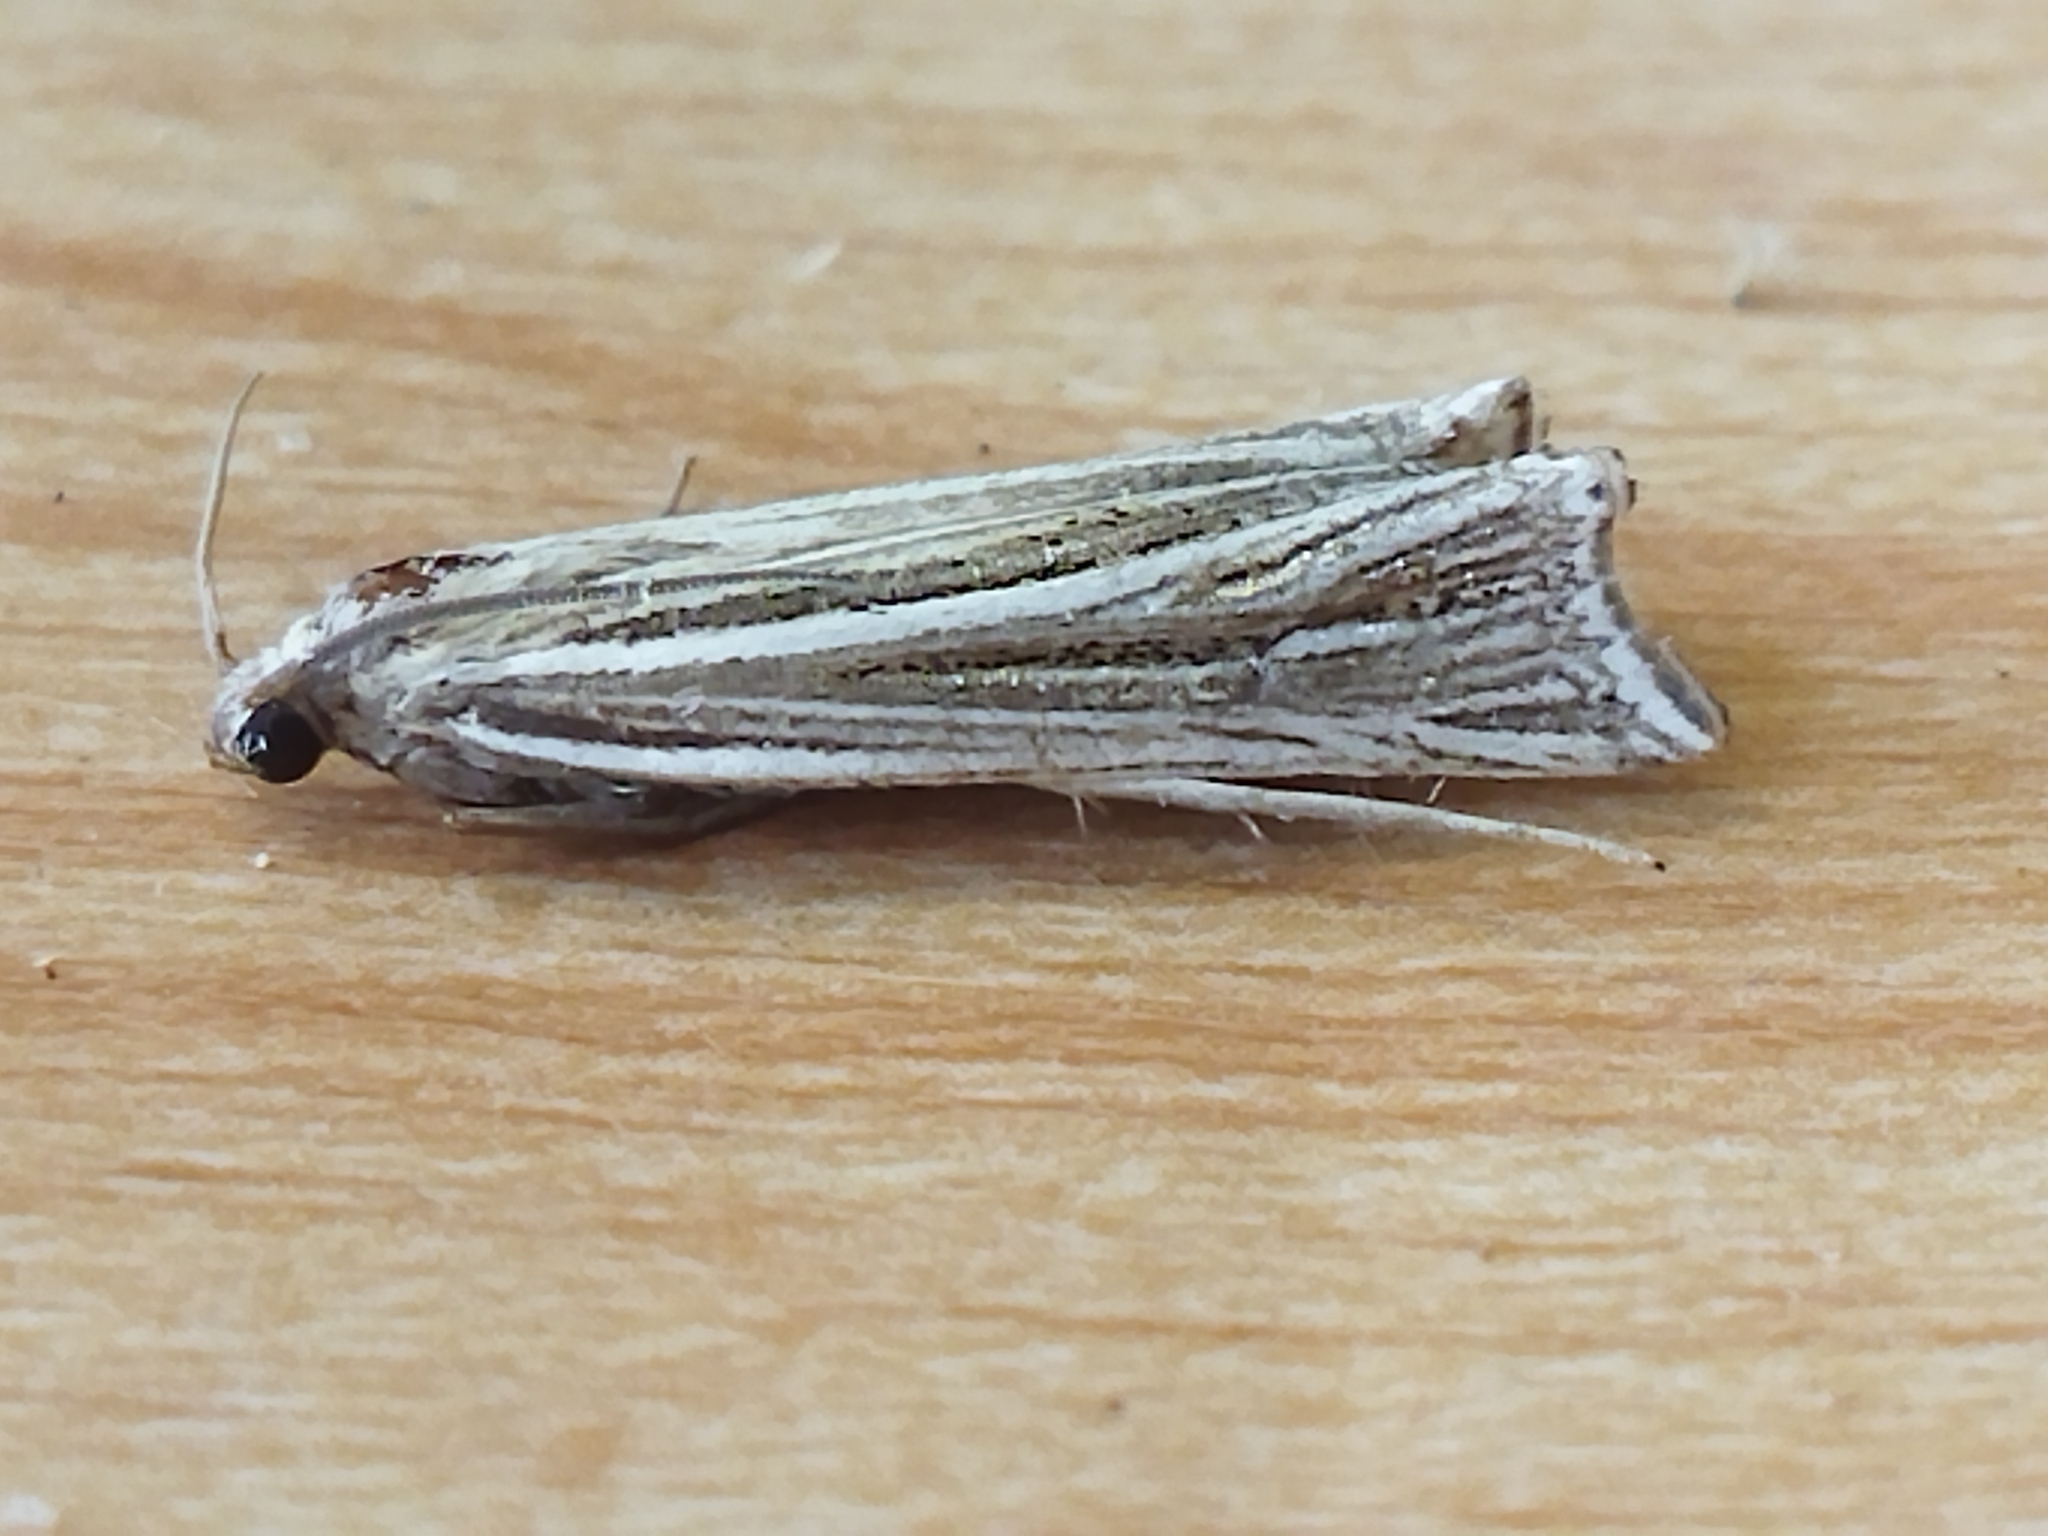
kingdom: Animalia
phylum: Arthropoda
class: Insecta
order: Lepidoptera
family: Crambidae
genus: Ancylolomia
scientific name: Ancylolomia palpella
